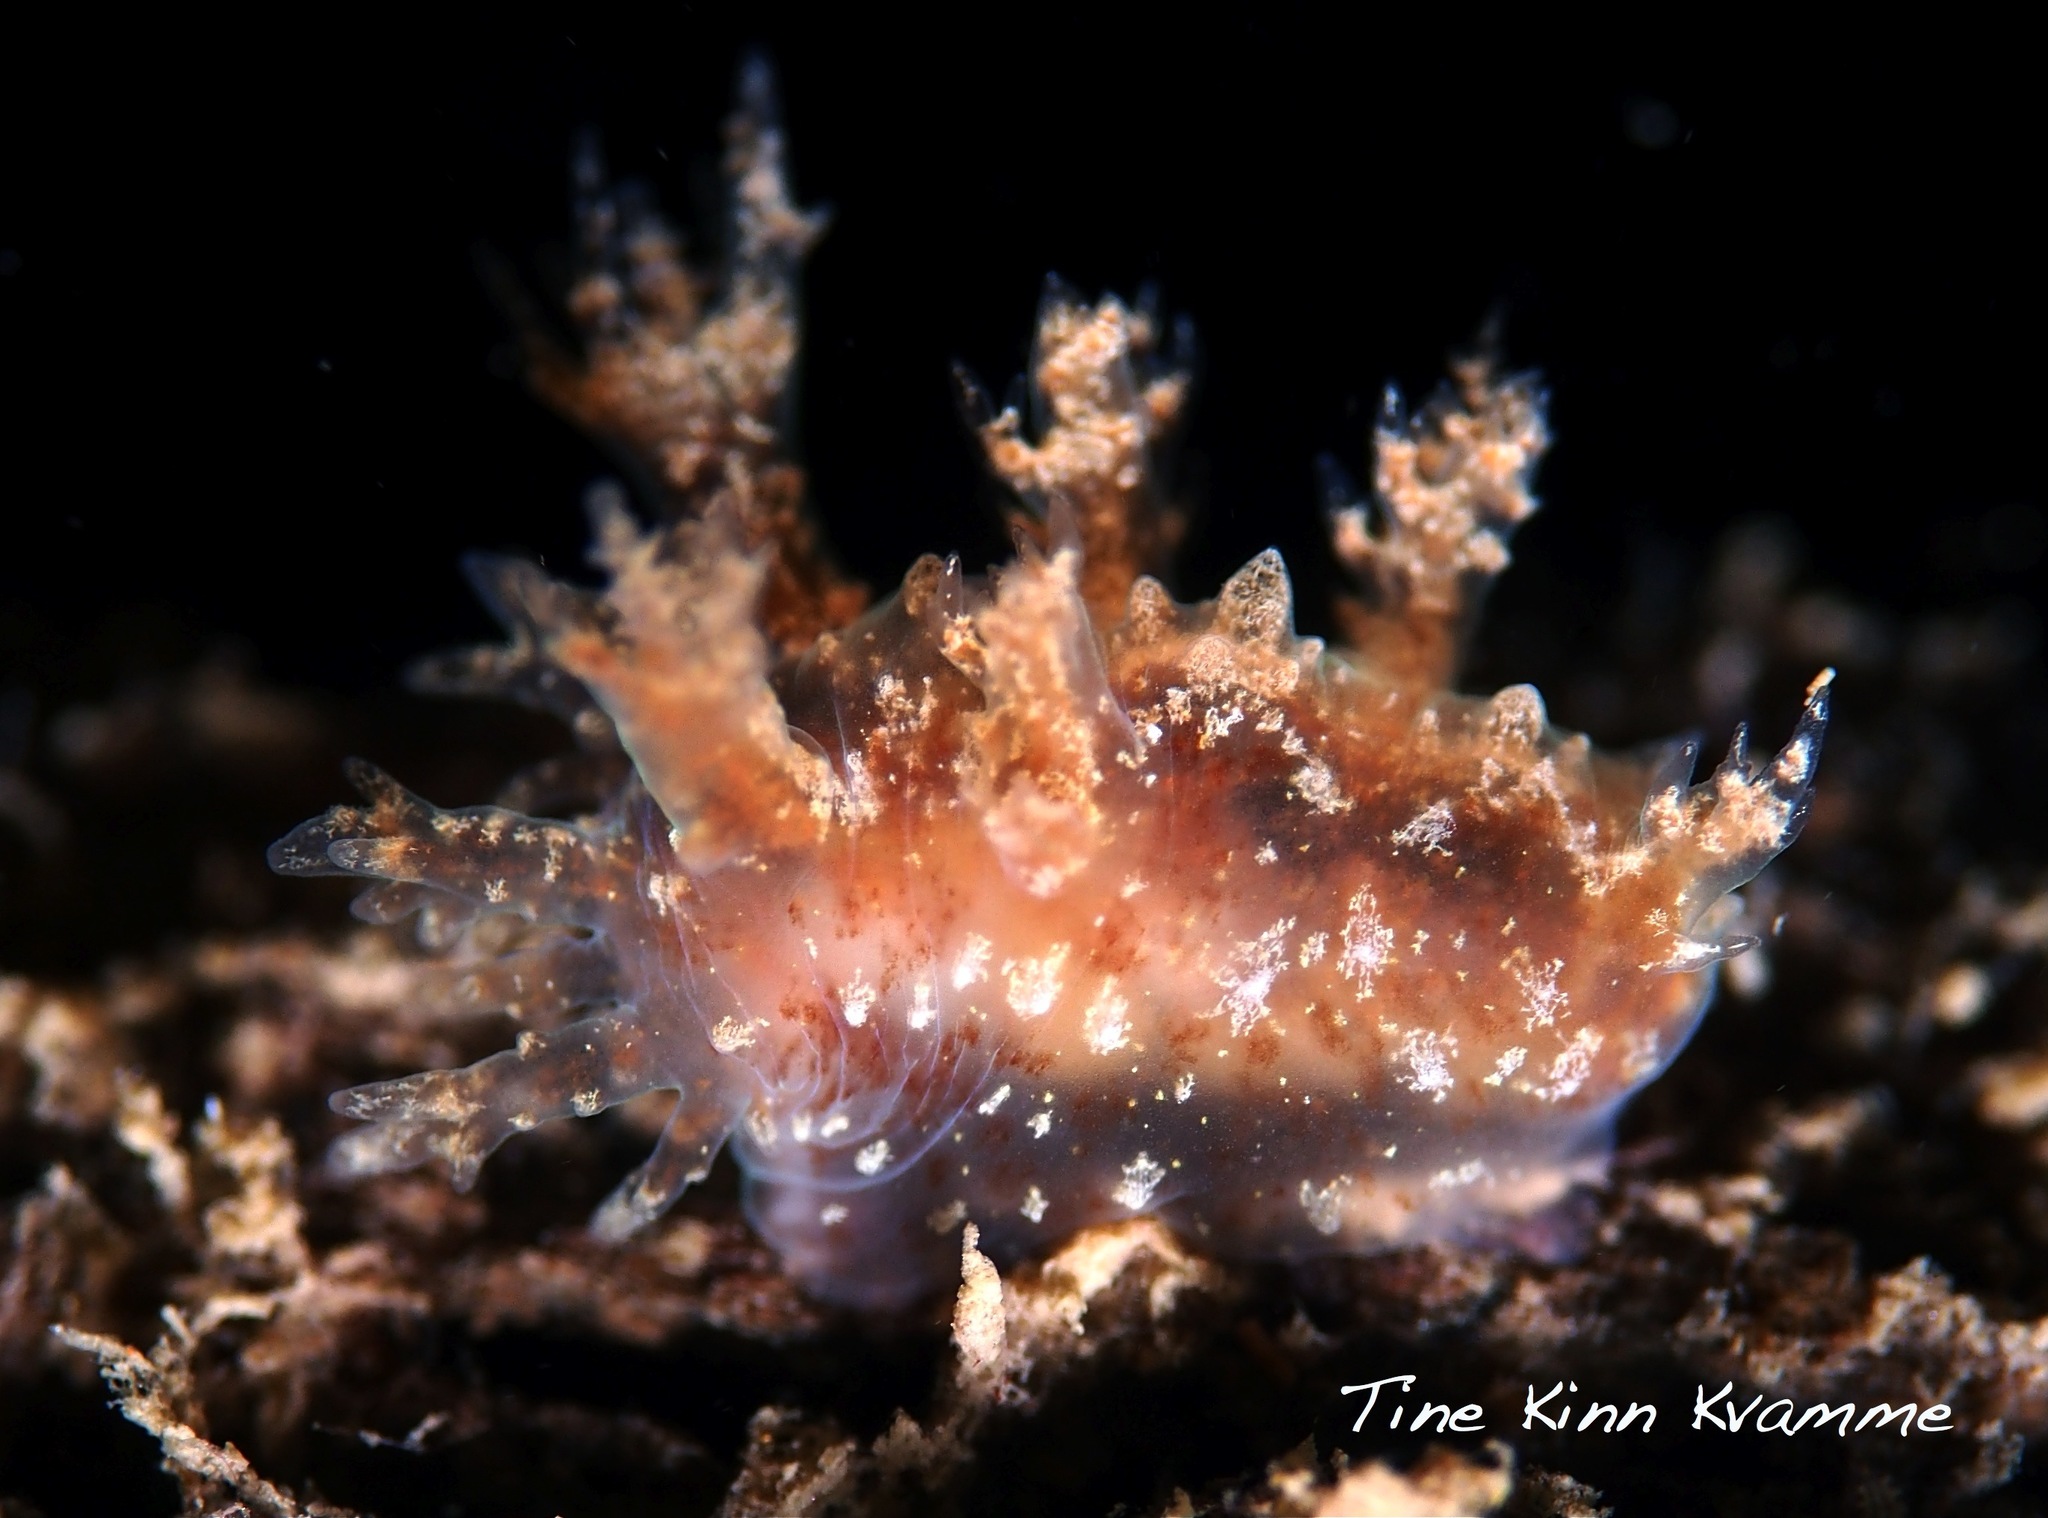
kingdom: Animalia
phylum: Mollusca
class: Gastropoda
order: Nudibranchia
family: Dendronotidae
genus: Dendronotus
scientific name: Dendronotus frondosus
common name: Bushy-backed nudibranch
